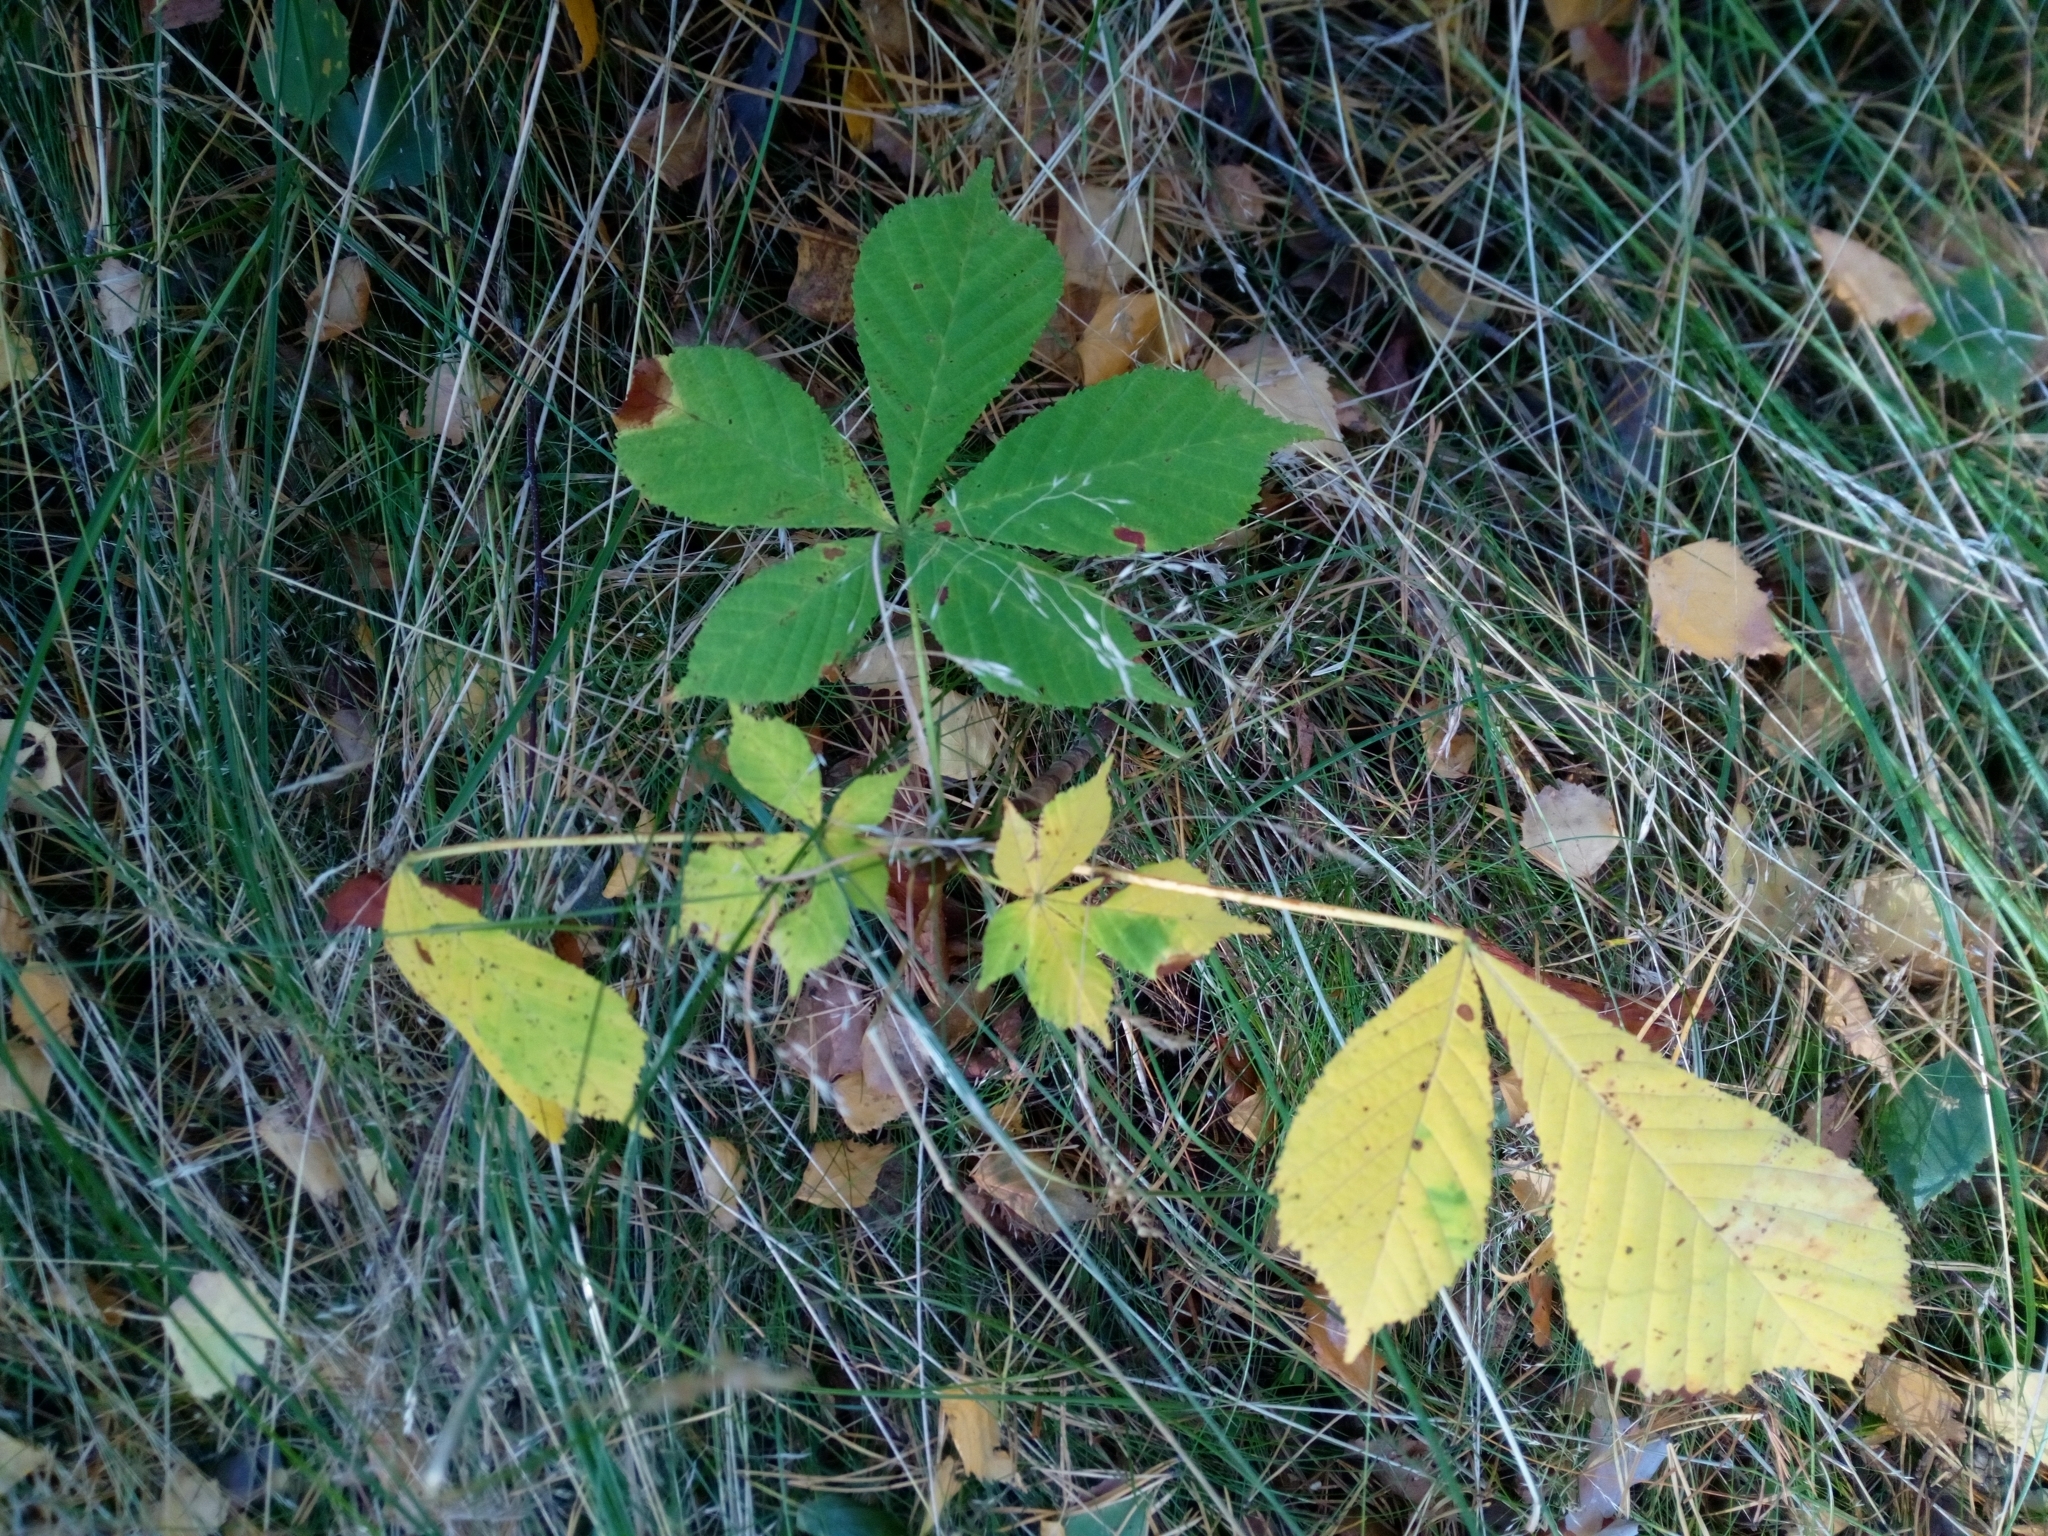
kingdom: Plantae
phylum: Tracheophyta
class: Magnoliopsida
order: Sapindales
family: Sapindaceae
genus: Aesculus
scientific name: Aesculus hippocastanum
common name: Horse-chestnut
